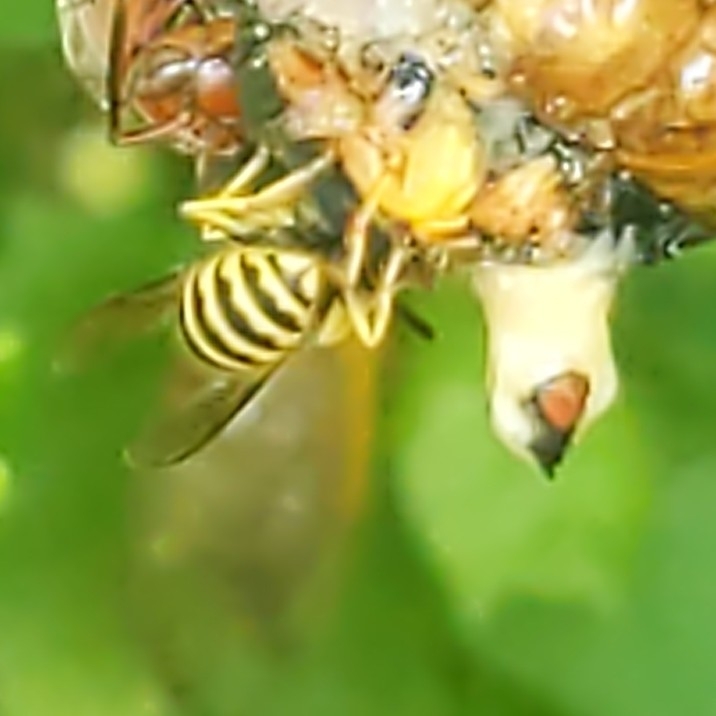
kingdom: Animalia
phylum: Arthropoda
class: Insecta
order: Hymenoptera
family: Vespidae
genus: Vespula
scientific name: Vespula
